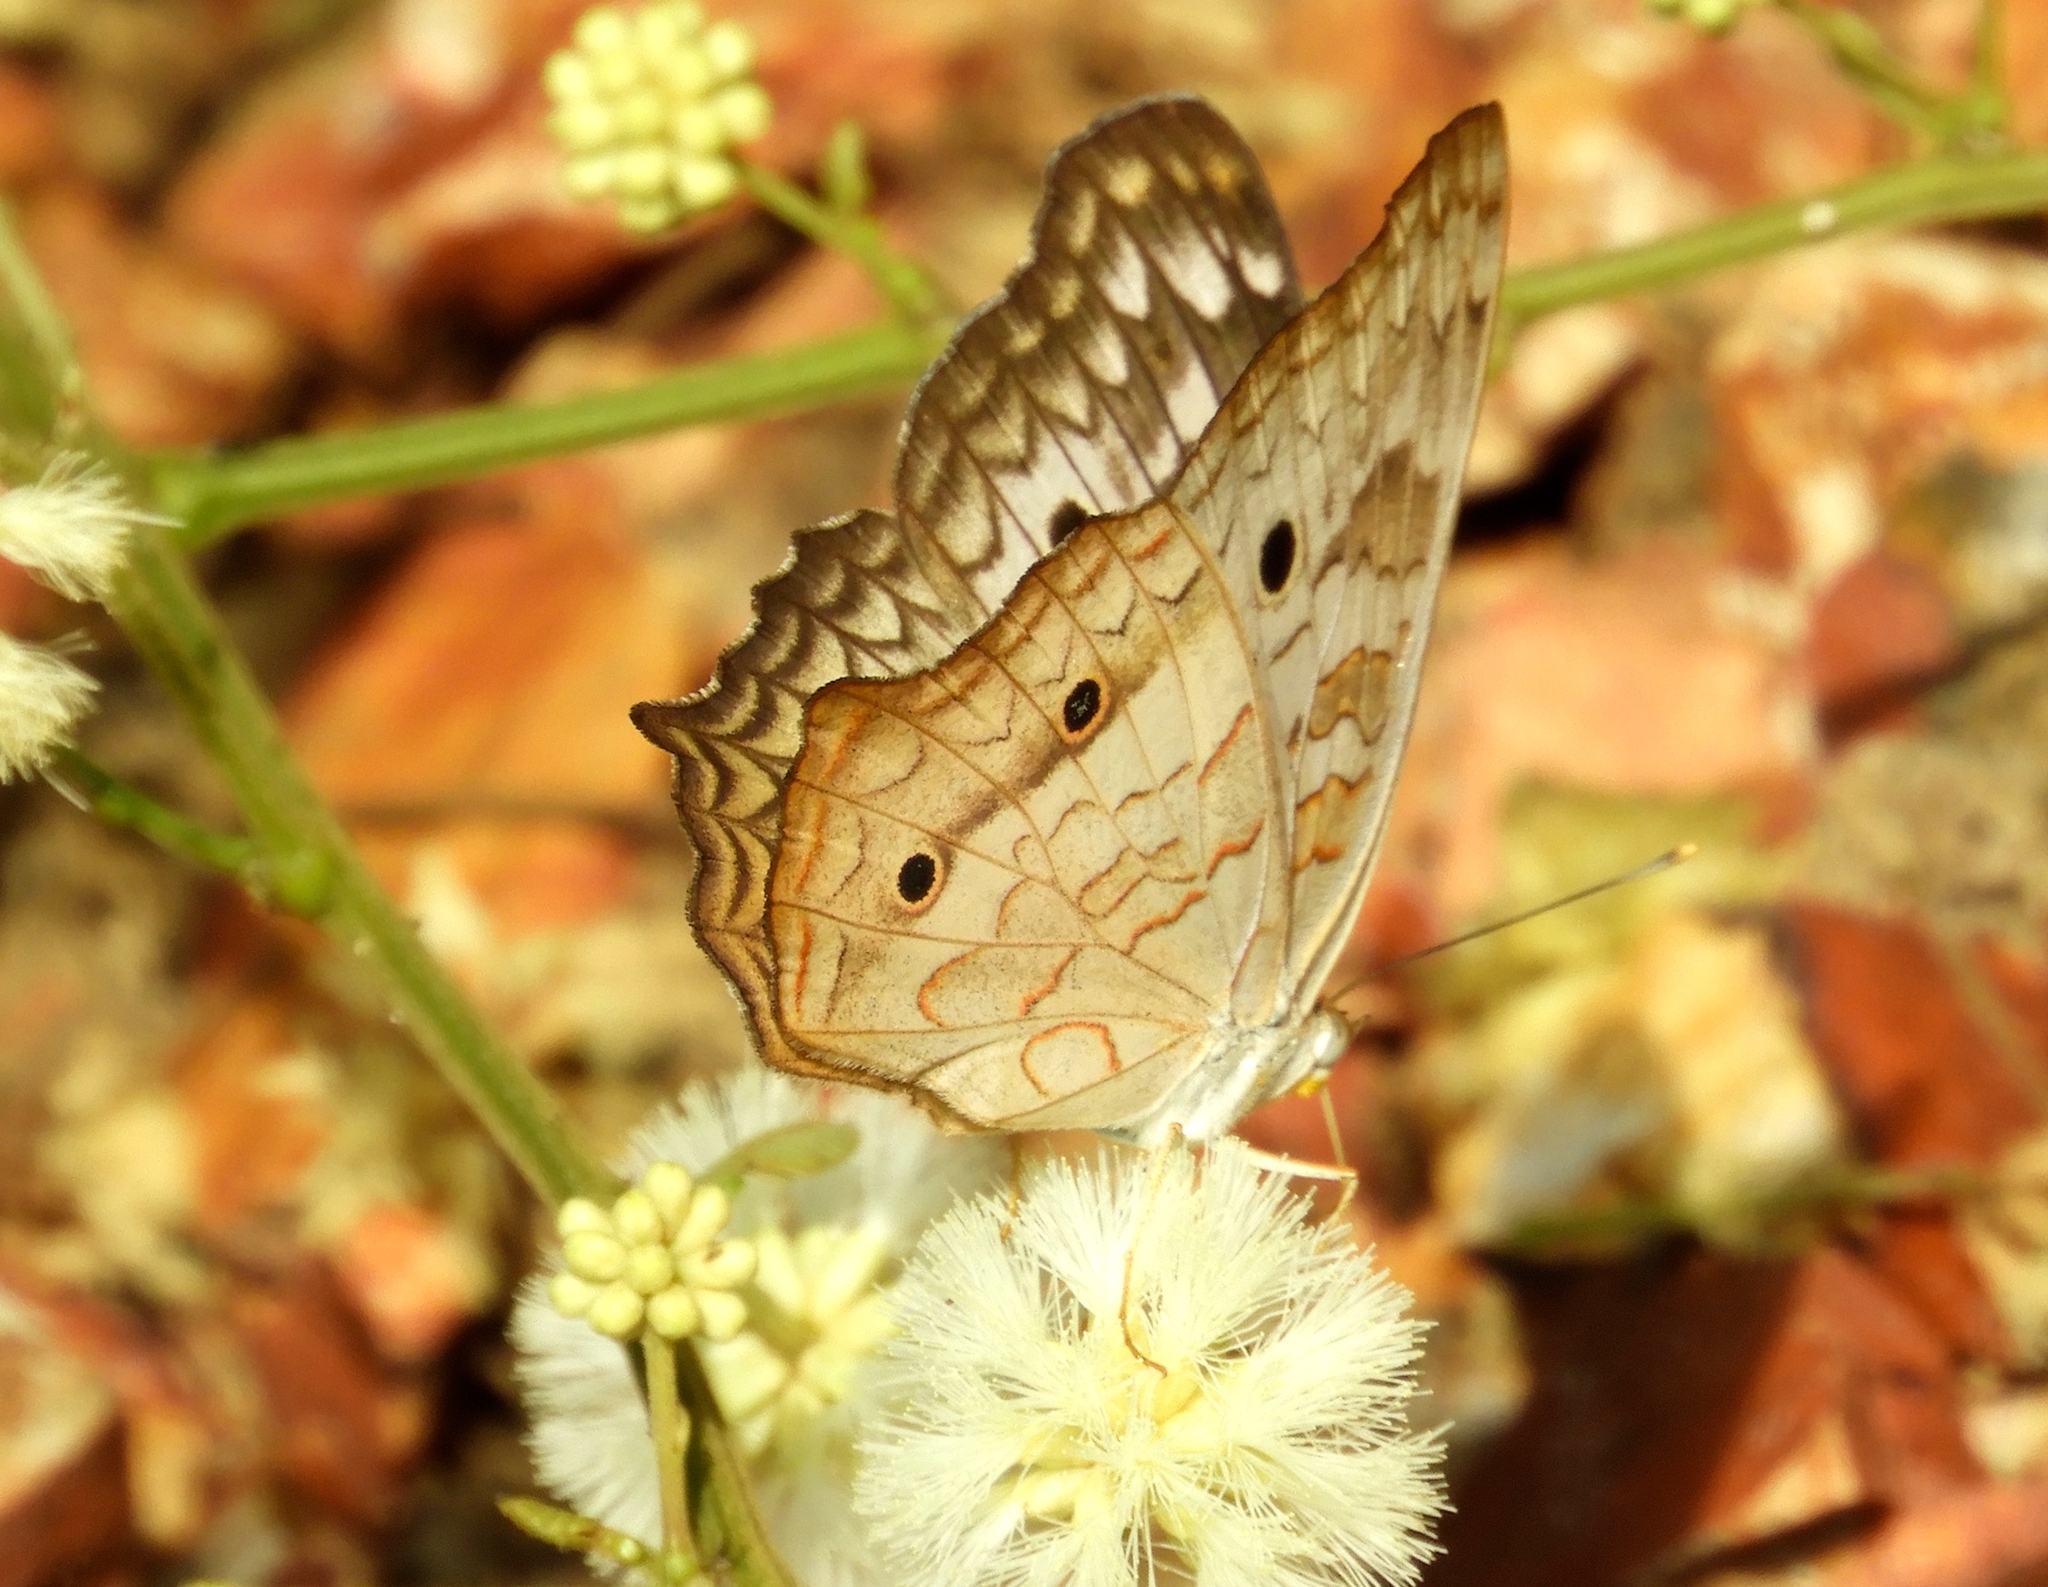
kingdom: Animalia
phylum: Arthropoda
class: Insecta
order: Lepidoptera
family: Nymphalidae
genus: Anartia
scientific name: Anartia jatrophae
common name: White peacock
